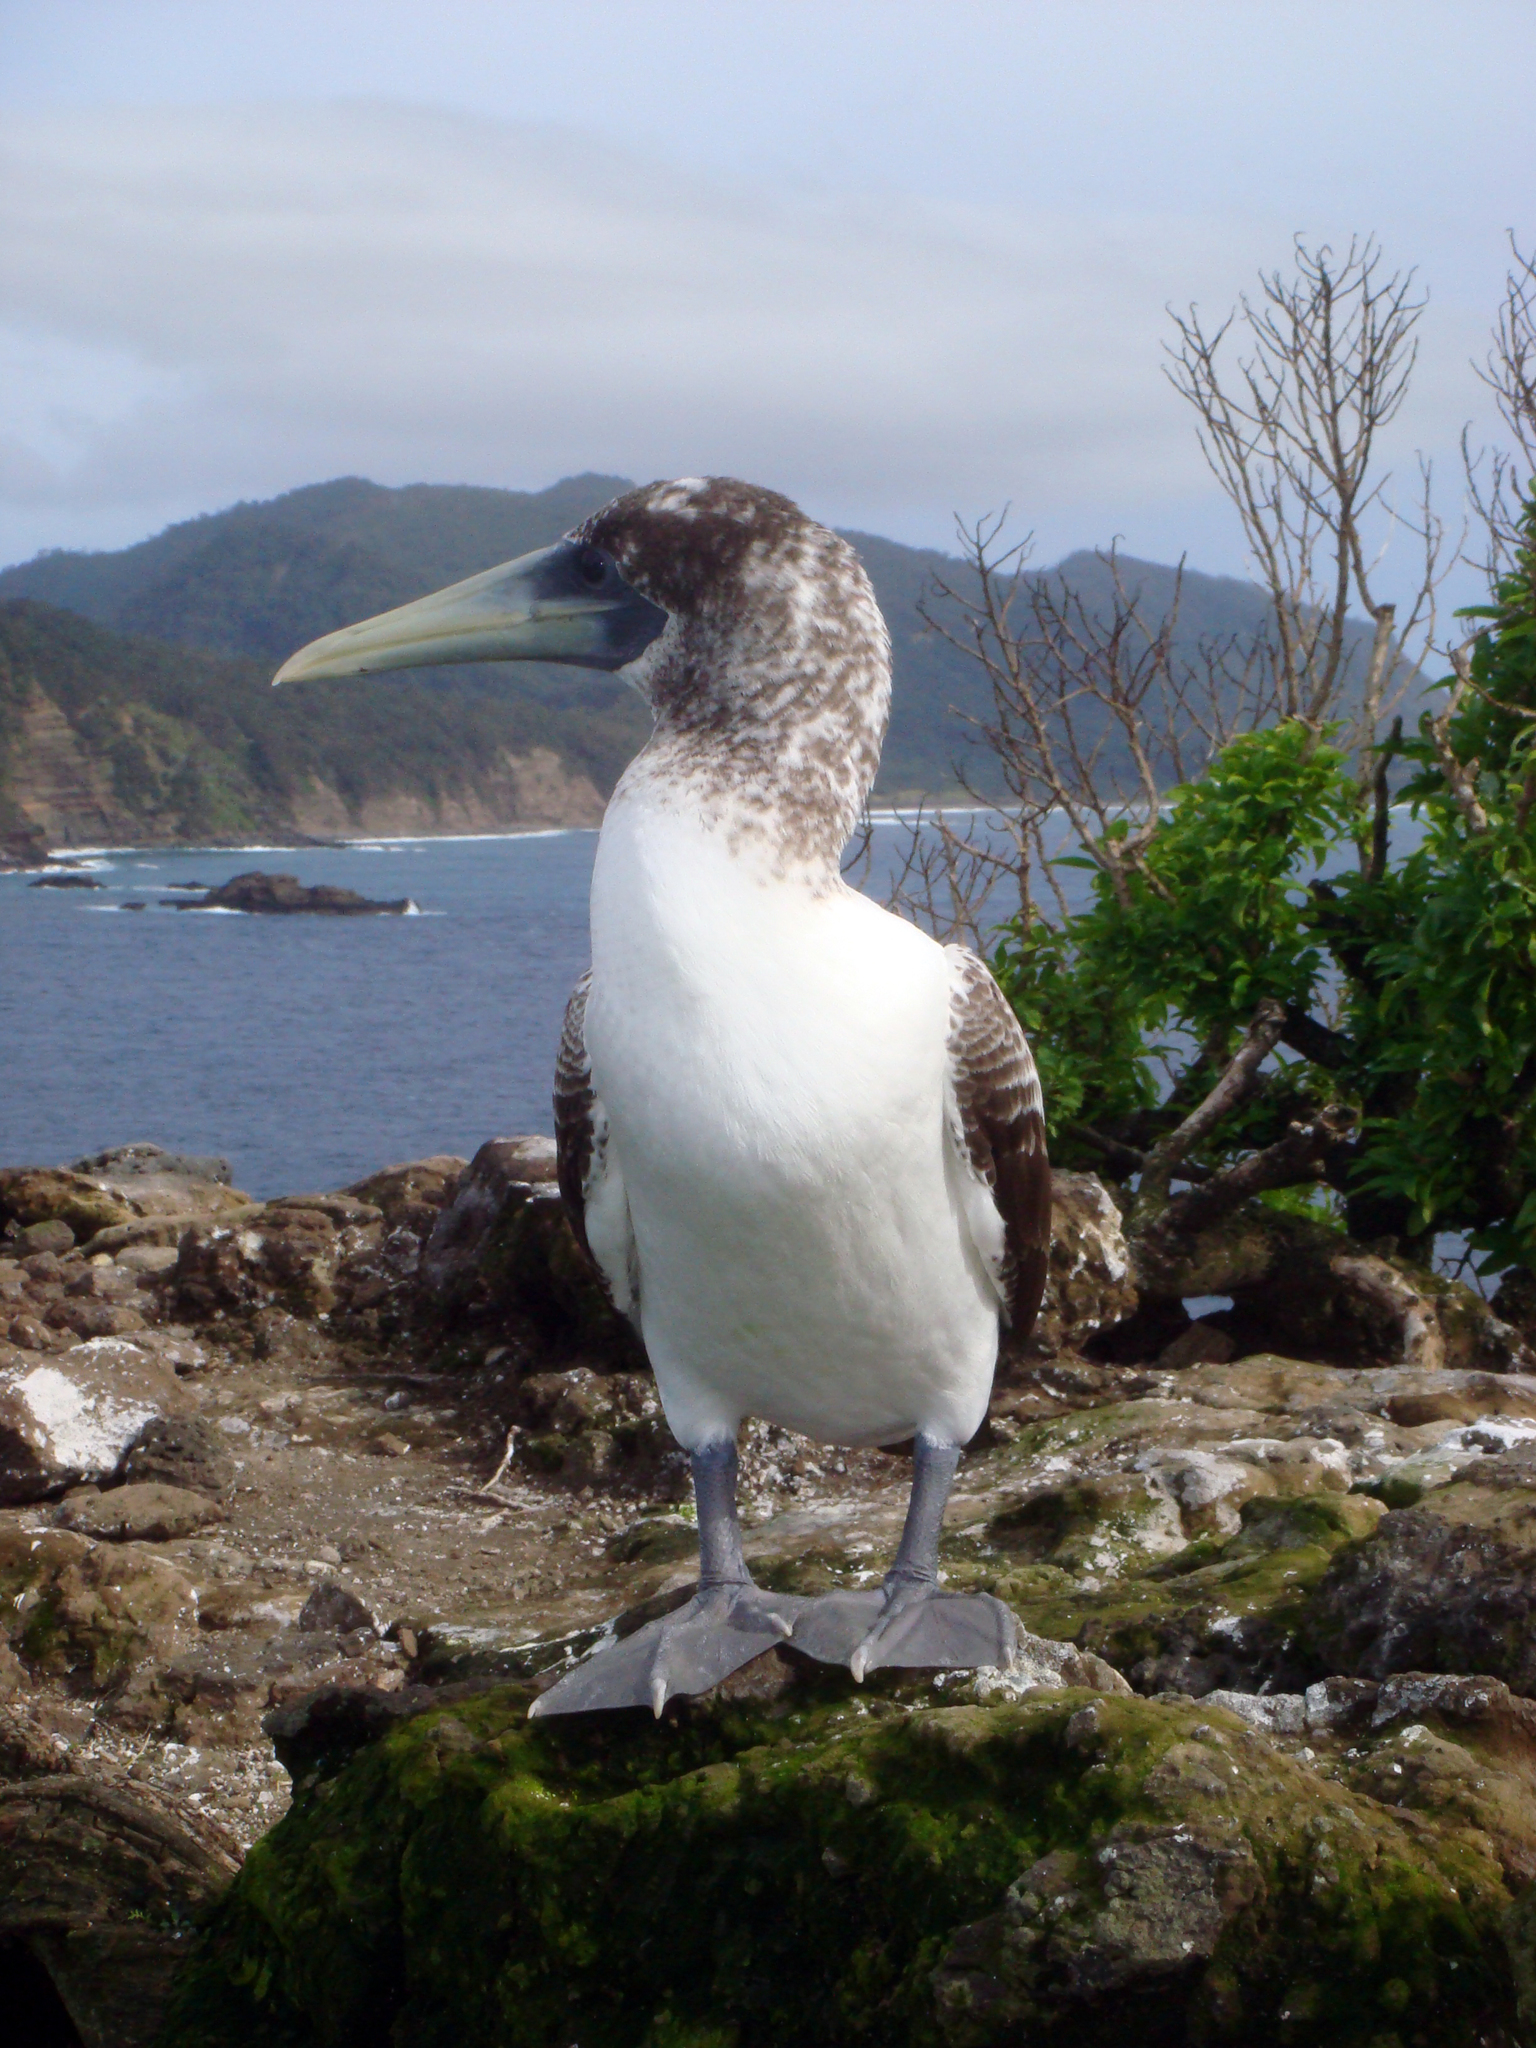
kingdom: Animalia
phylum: Chordata
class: Aves
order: Suliformes
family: Sulidae
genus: Sula
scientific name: Sula dactylatra
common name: Masked booby
